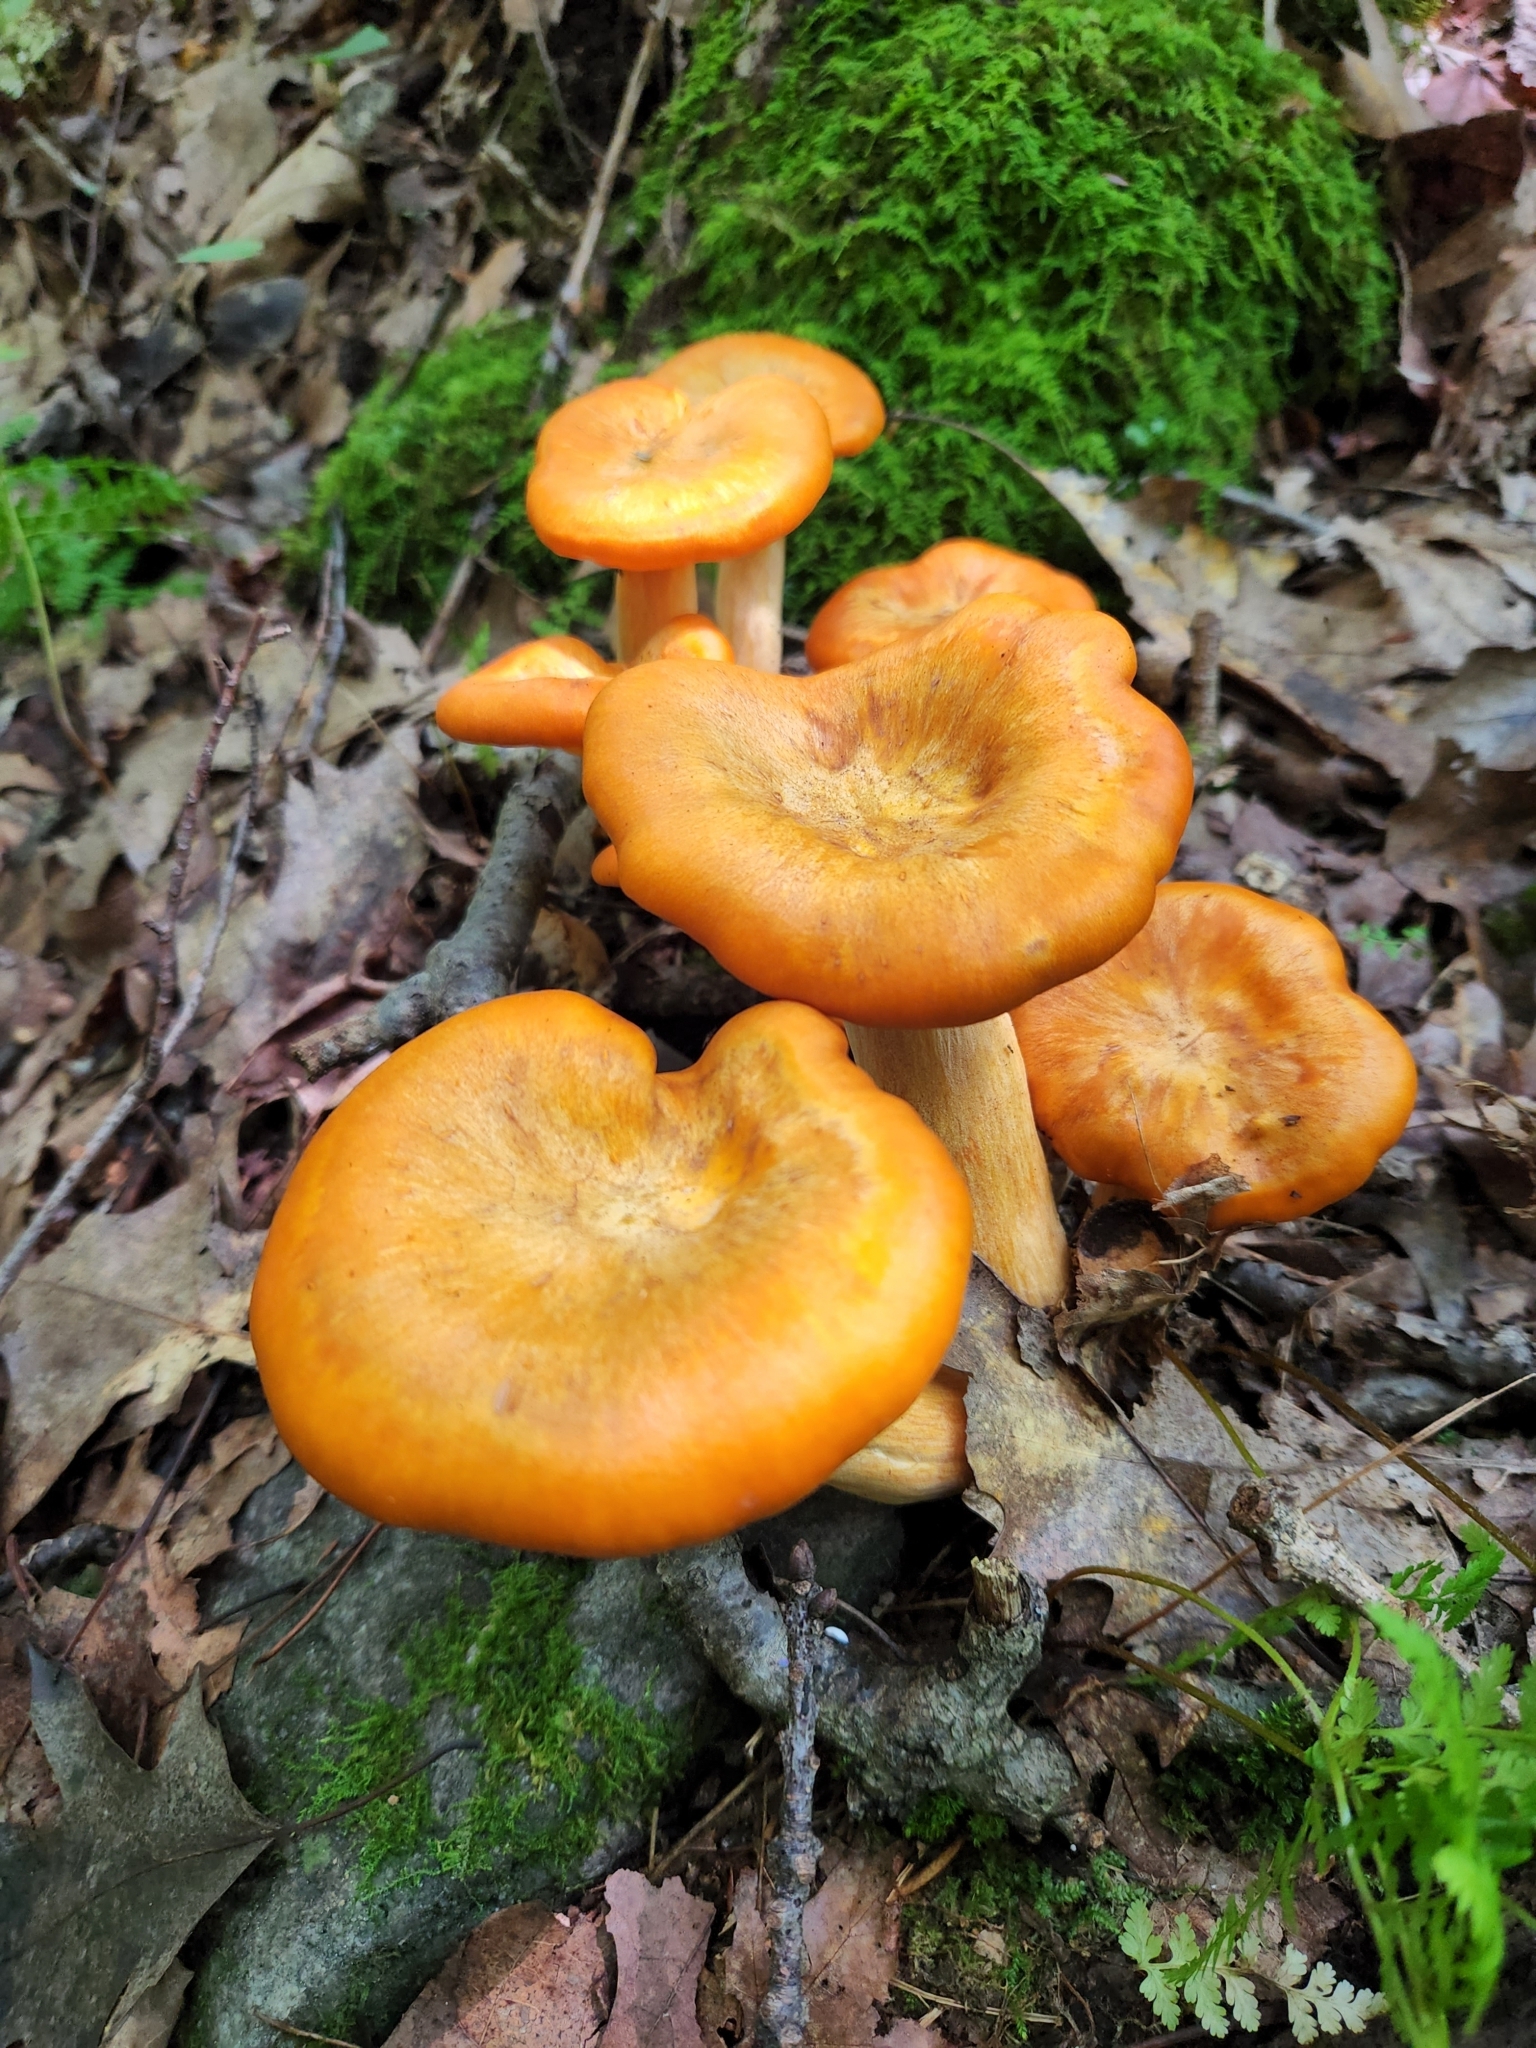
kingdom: Fungi
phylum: Basidiomycota
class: Agaricomycetes
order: Agaricales
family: Omphalotaceae
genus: Omphalotus
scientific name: Omphalotus illudens
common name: Jack o lantern
